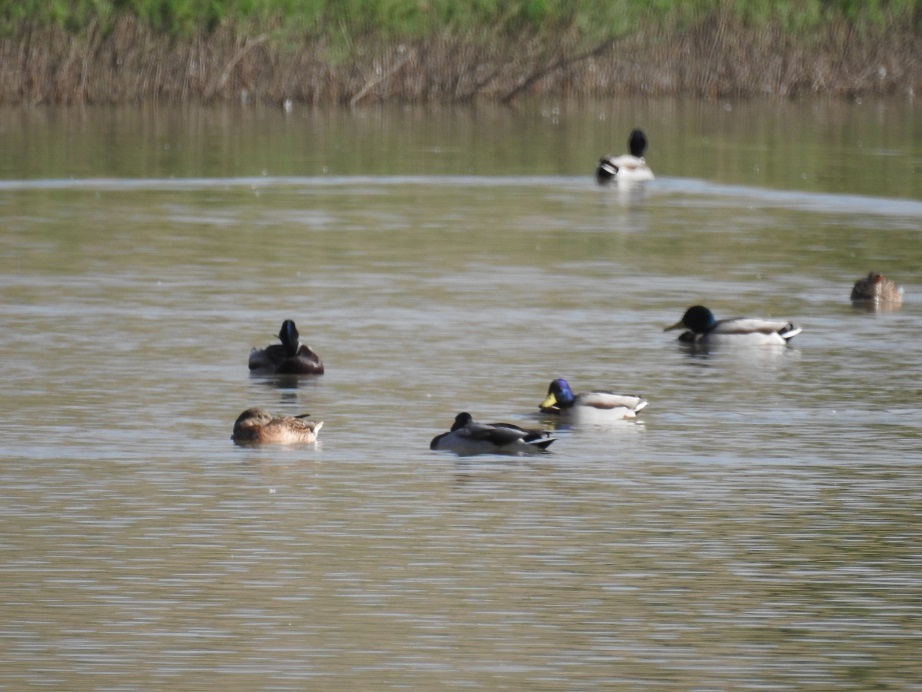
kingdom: Animalia
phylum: Chordata
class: Aves
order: Anseriformes
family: Anatidae
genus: Anas
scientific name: Anas platyrhynchos
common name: Mallard
